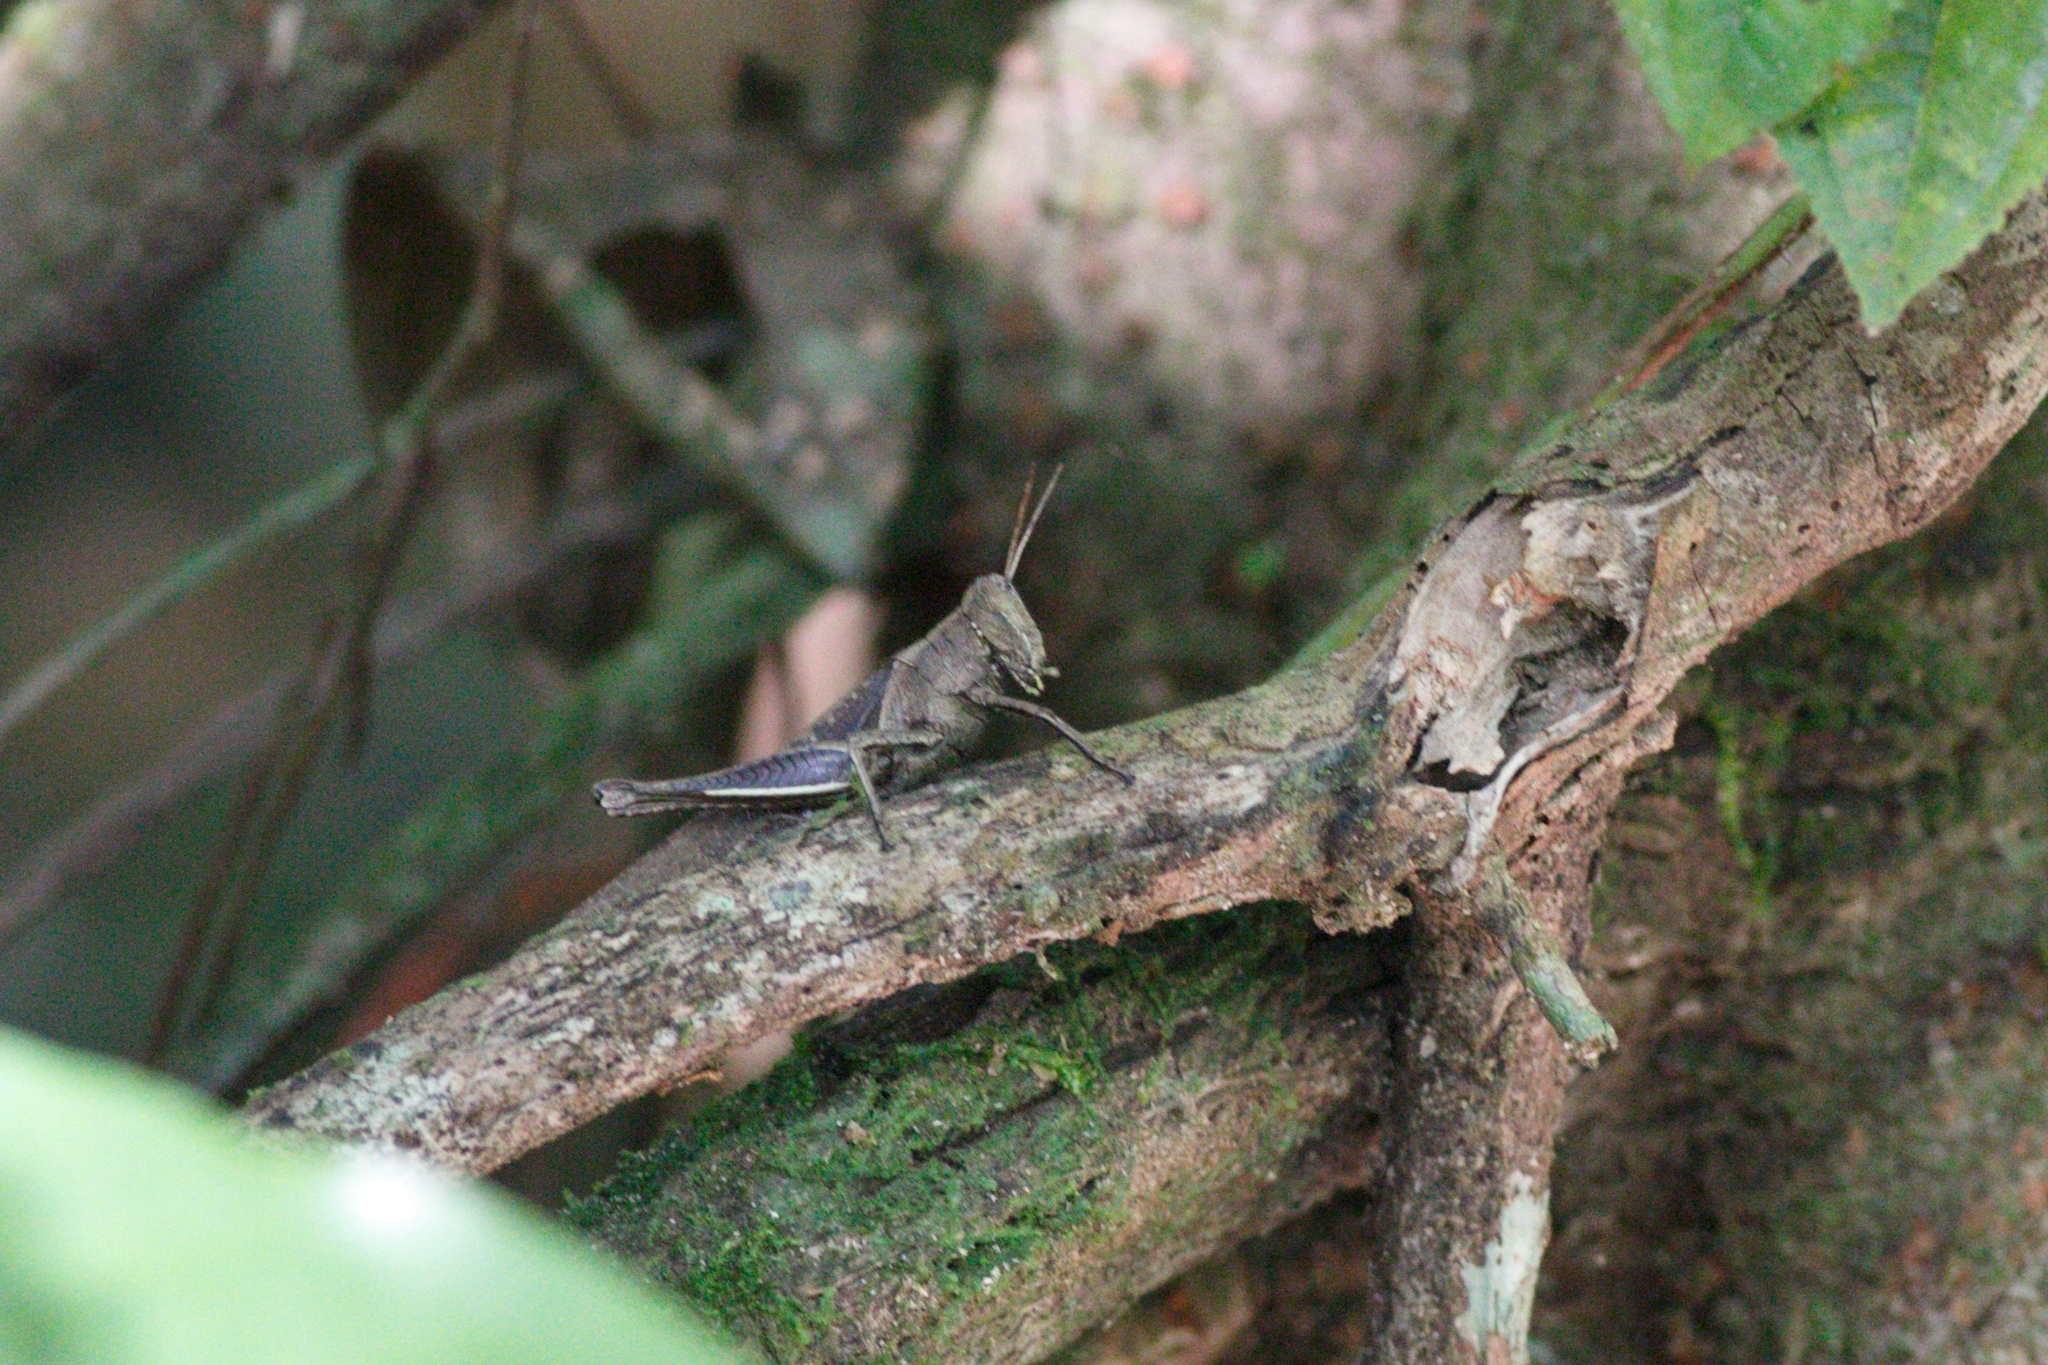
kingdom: Animalia
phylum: Arthropoda
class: Insecta
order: Orthoptera
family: Acrididae
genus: Abracris
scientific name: Abracris flavolineata
